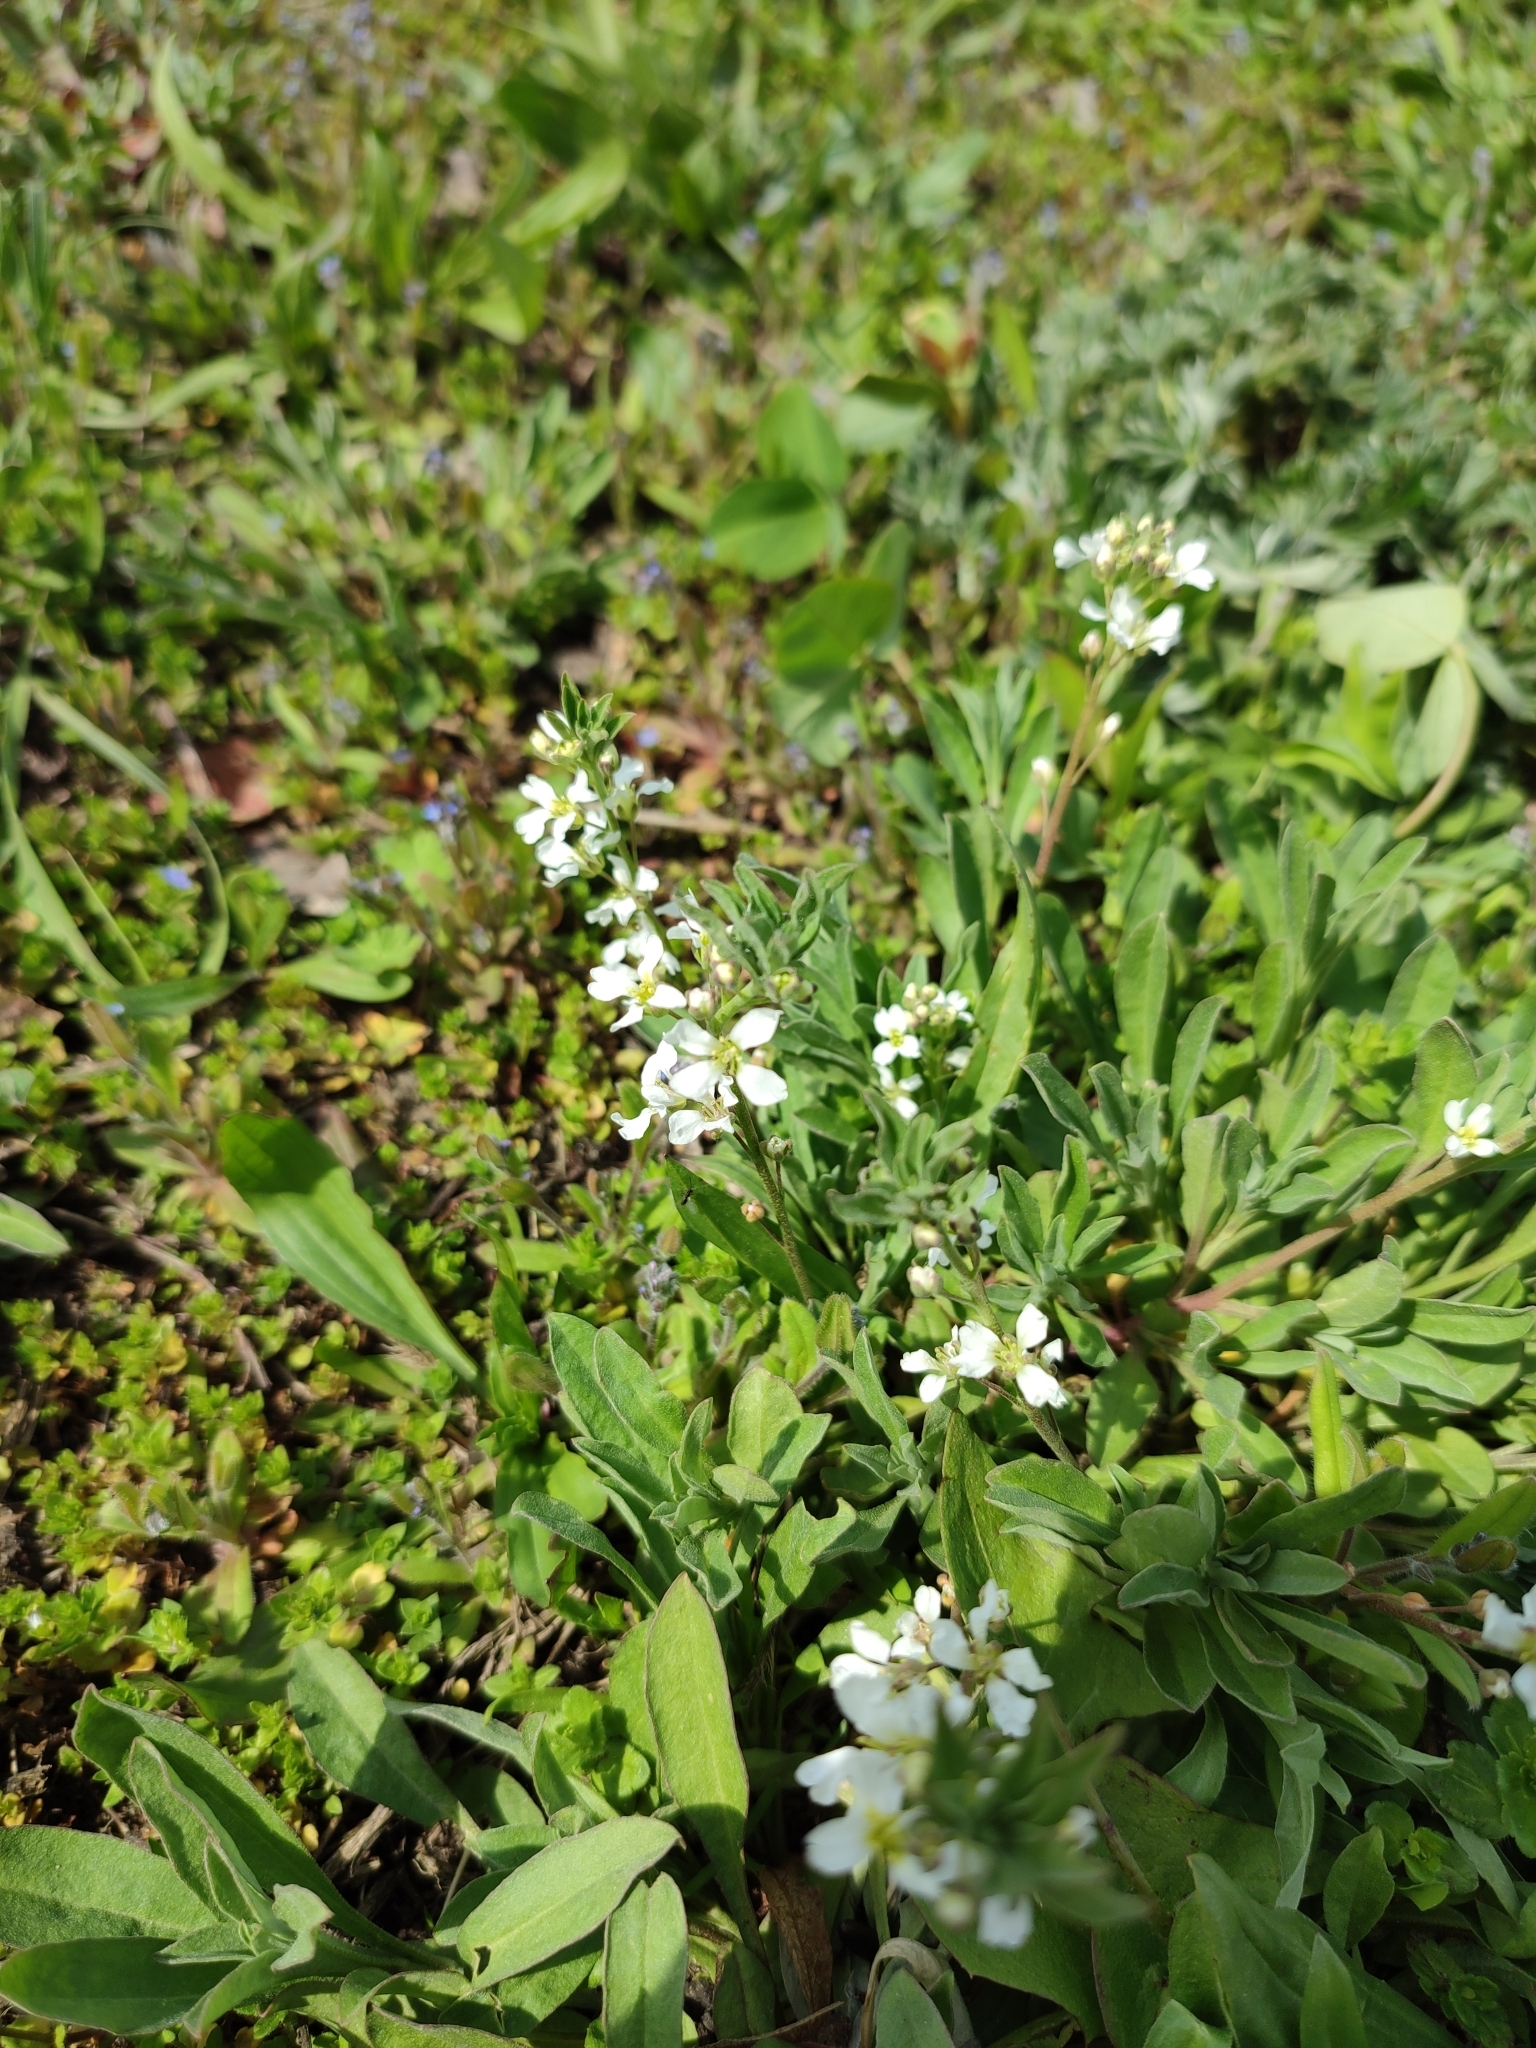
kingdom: Plantae
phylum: Tracheophyta
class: Magnoliopsida
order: Brassicales
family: Brassicaceae
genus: Berteroa
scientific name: Berteroa incana
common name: Hoary alison
